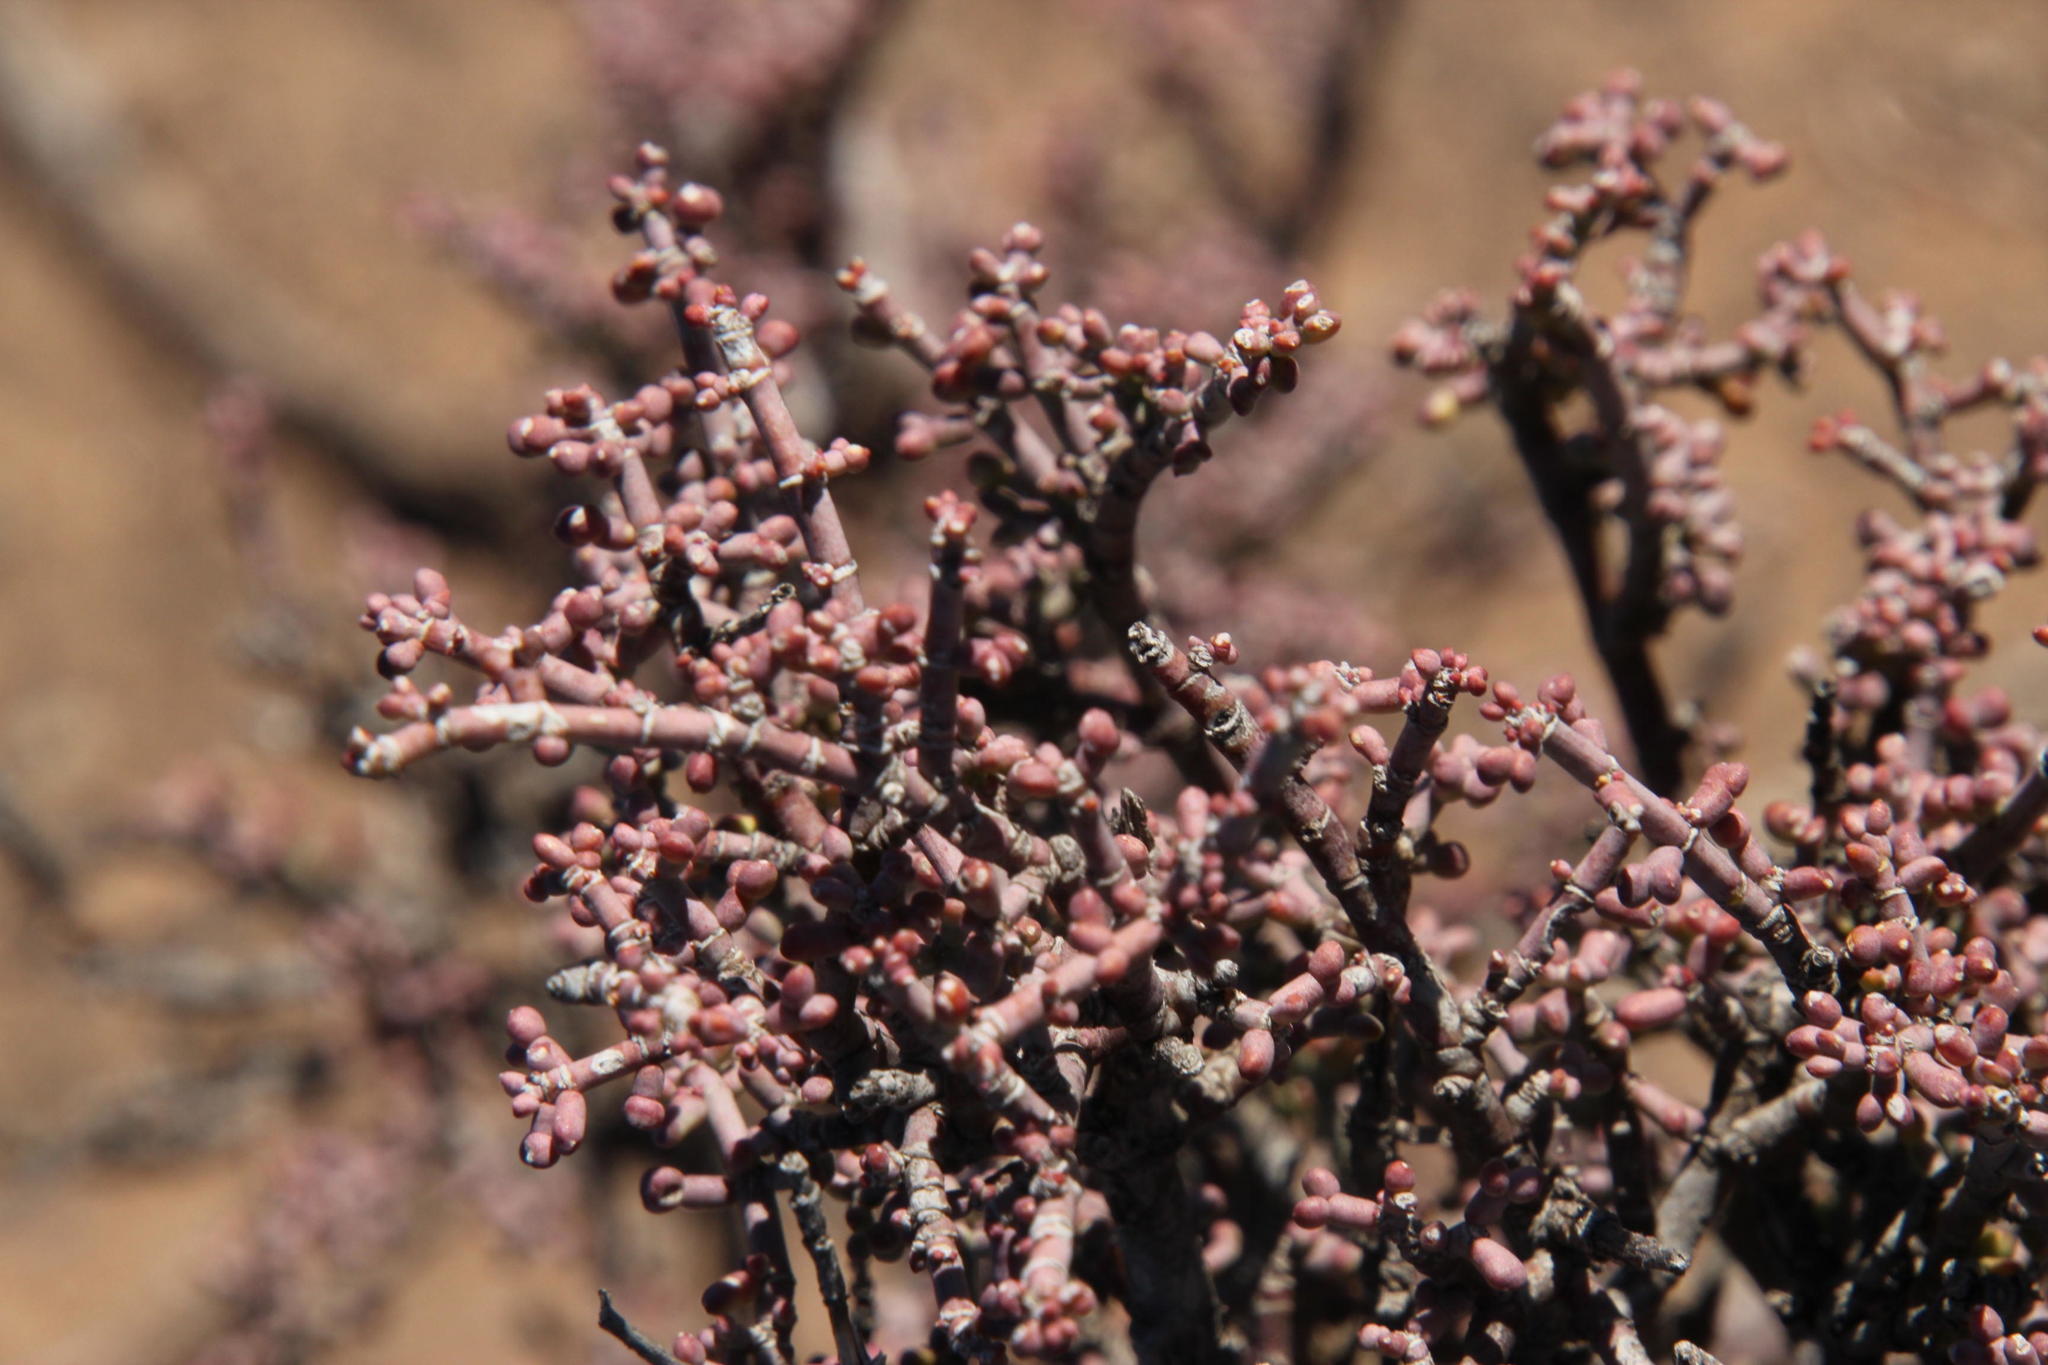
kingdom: Plantae
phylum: Tracheophyta
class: Magnoliopsida
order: Zygophyllales
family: Zygophyllaceae
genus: Zygophyllum
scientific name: Zygophyllum
